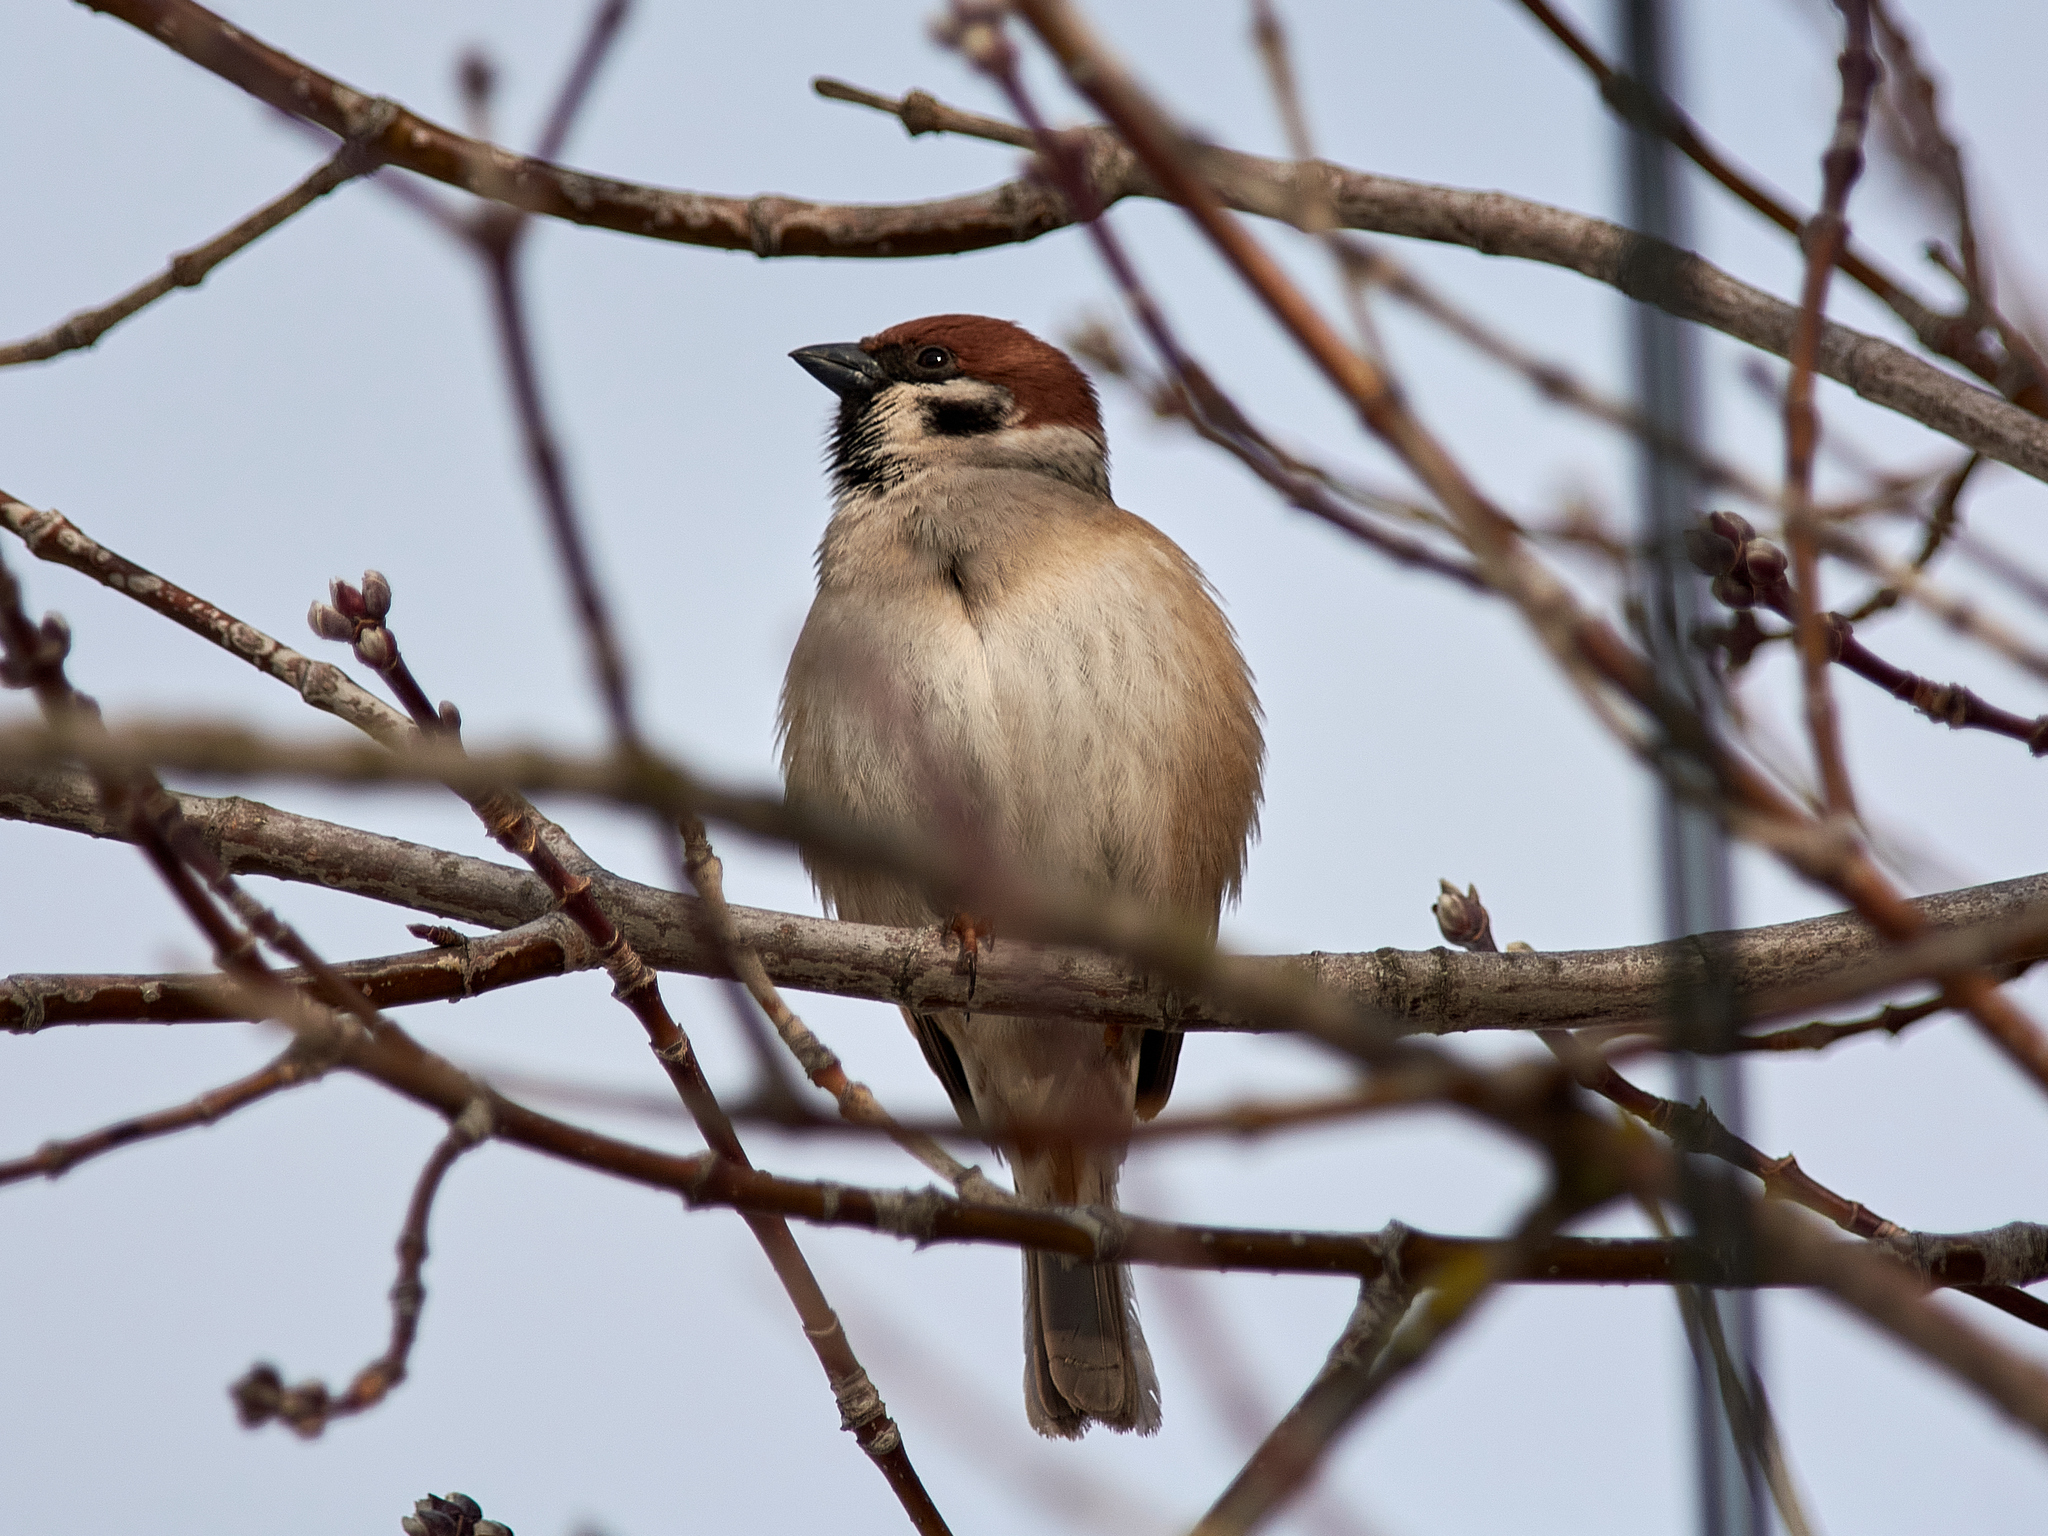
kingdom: Animalia
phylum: Chordata
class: Aves
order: Passeriformes
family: Passeridae
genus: Passer
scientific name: Passer montanus
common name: Eurasian tree sparrow
